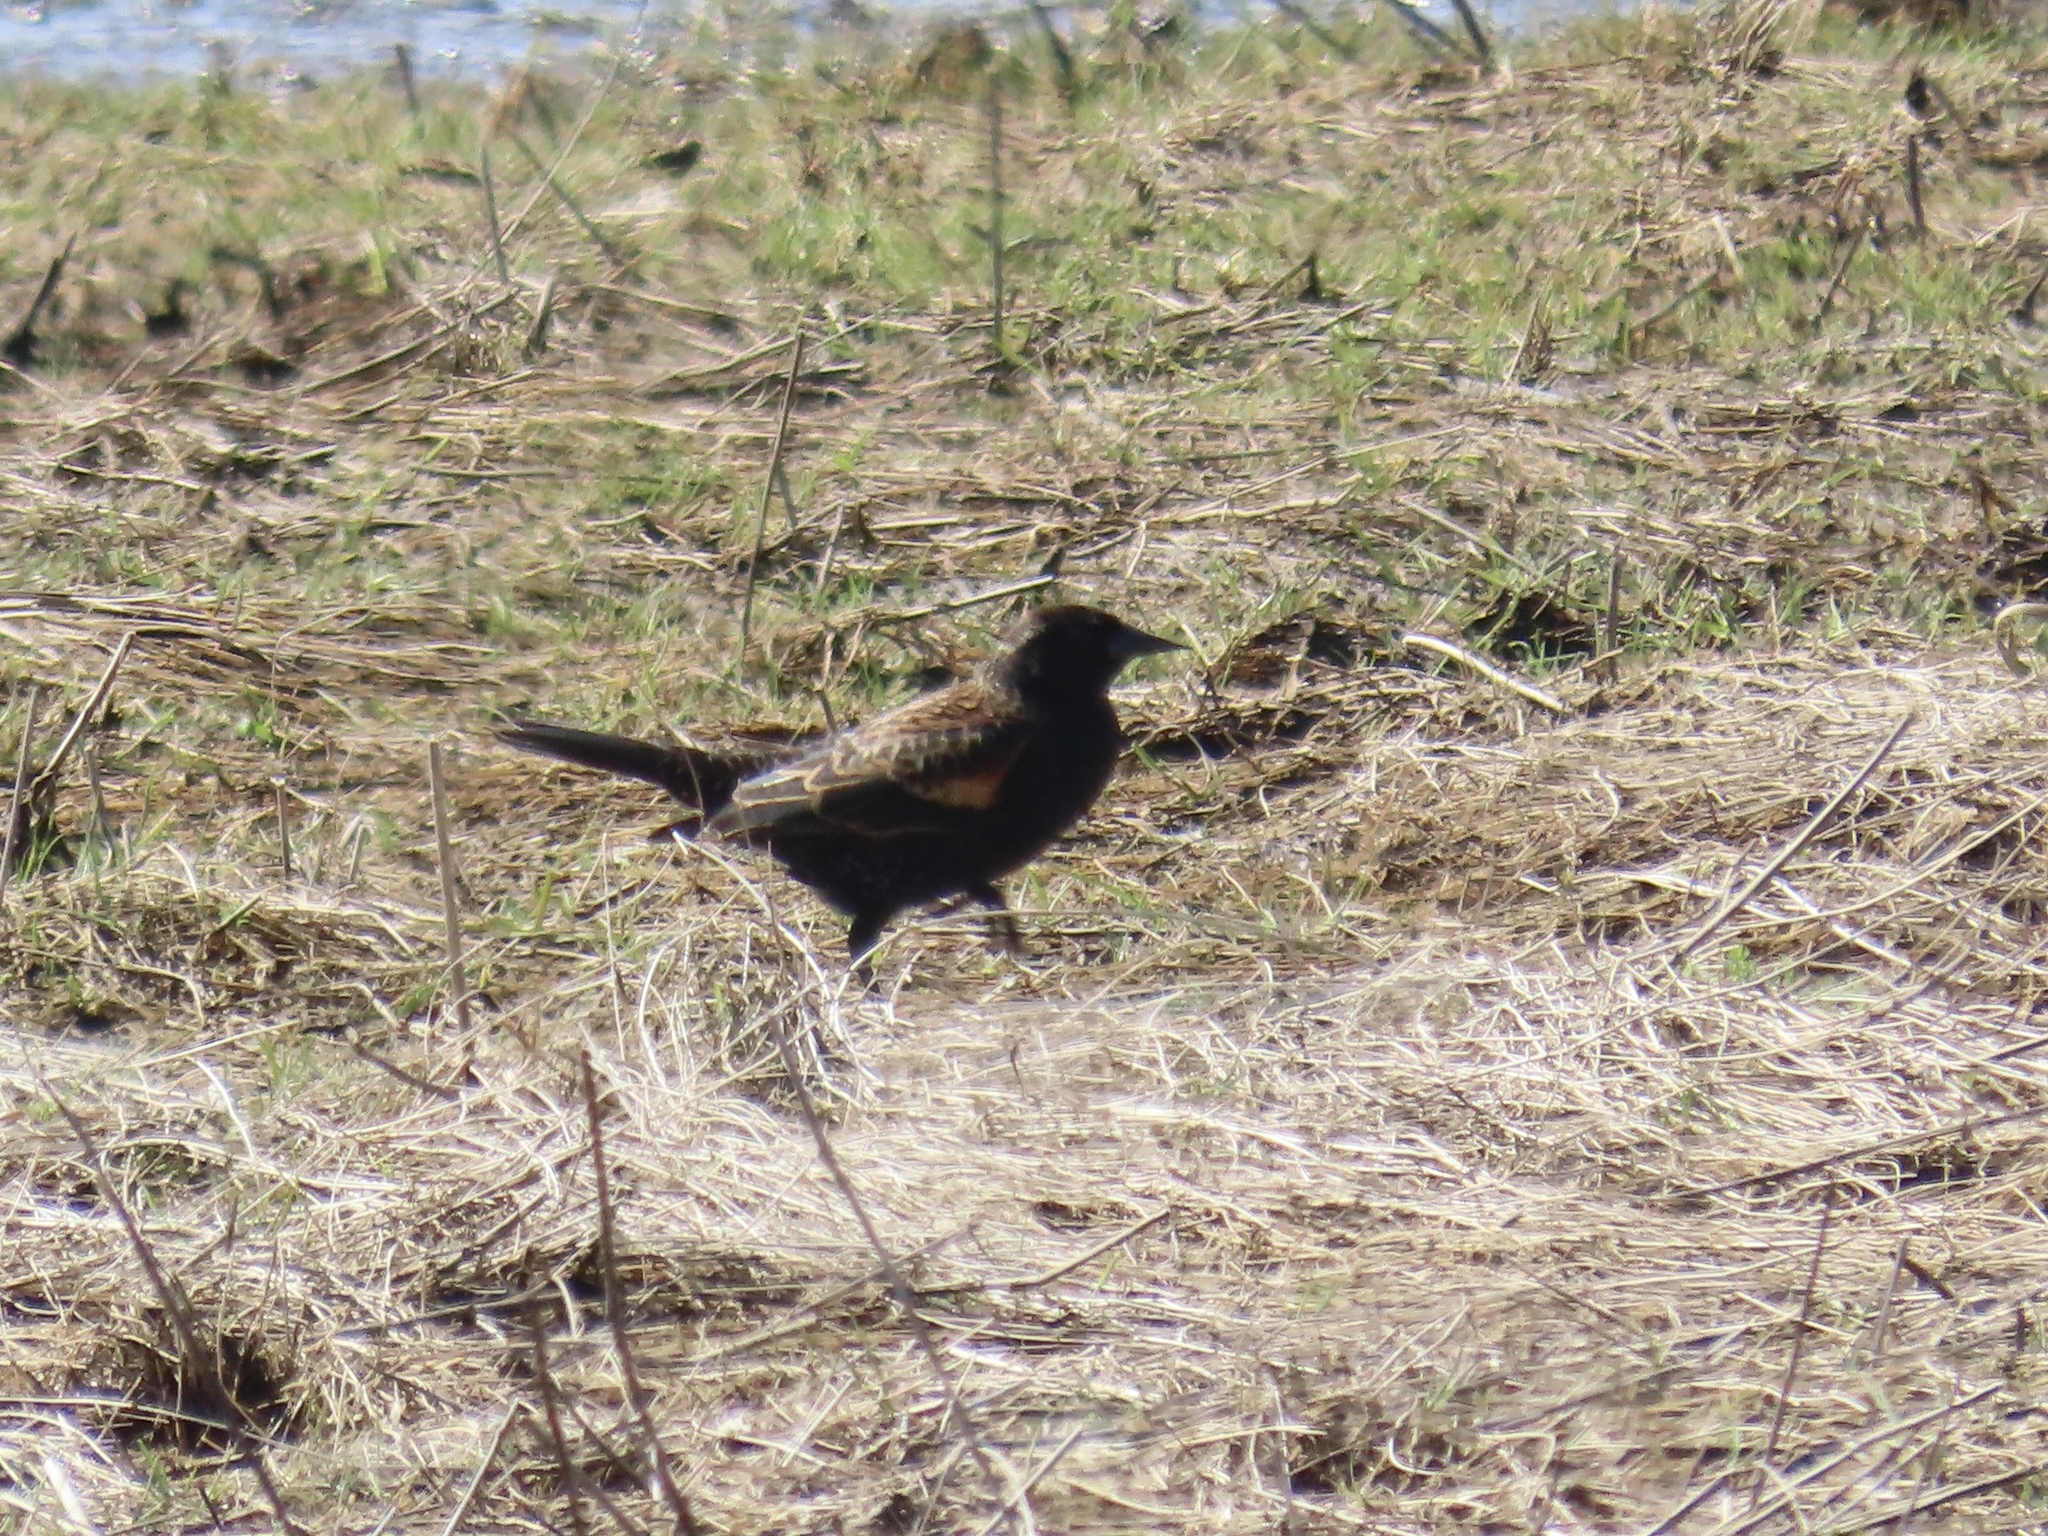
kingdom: Animalia
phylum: Chordata
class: Aves
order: Passeriformes
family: Icteridae
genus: Agelaius
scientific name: Agelaius phoeniceus
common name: Red-winged blackbird
